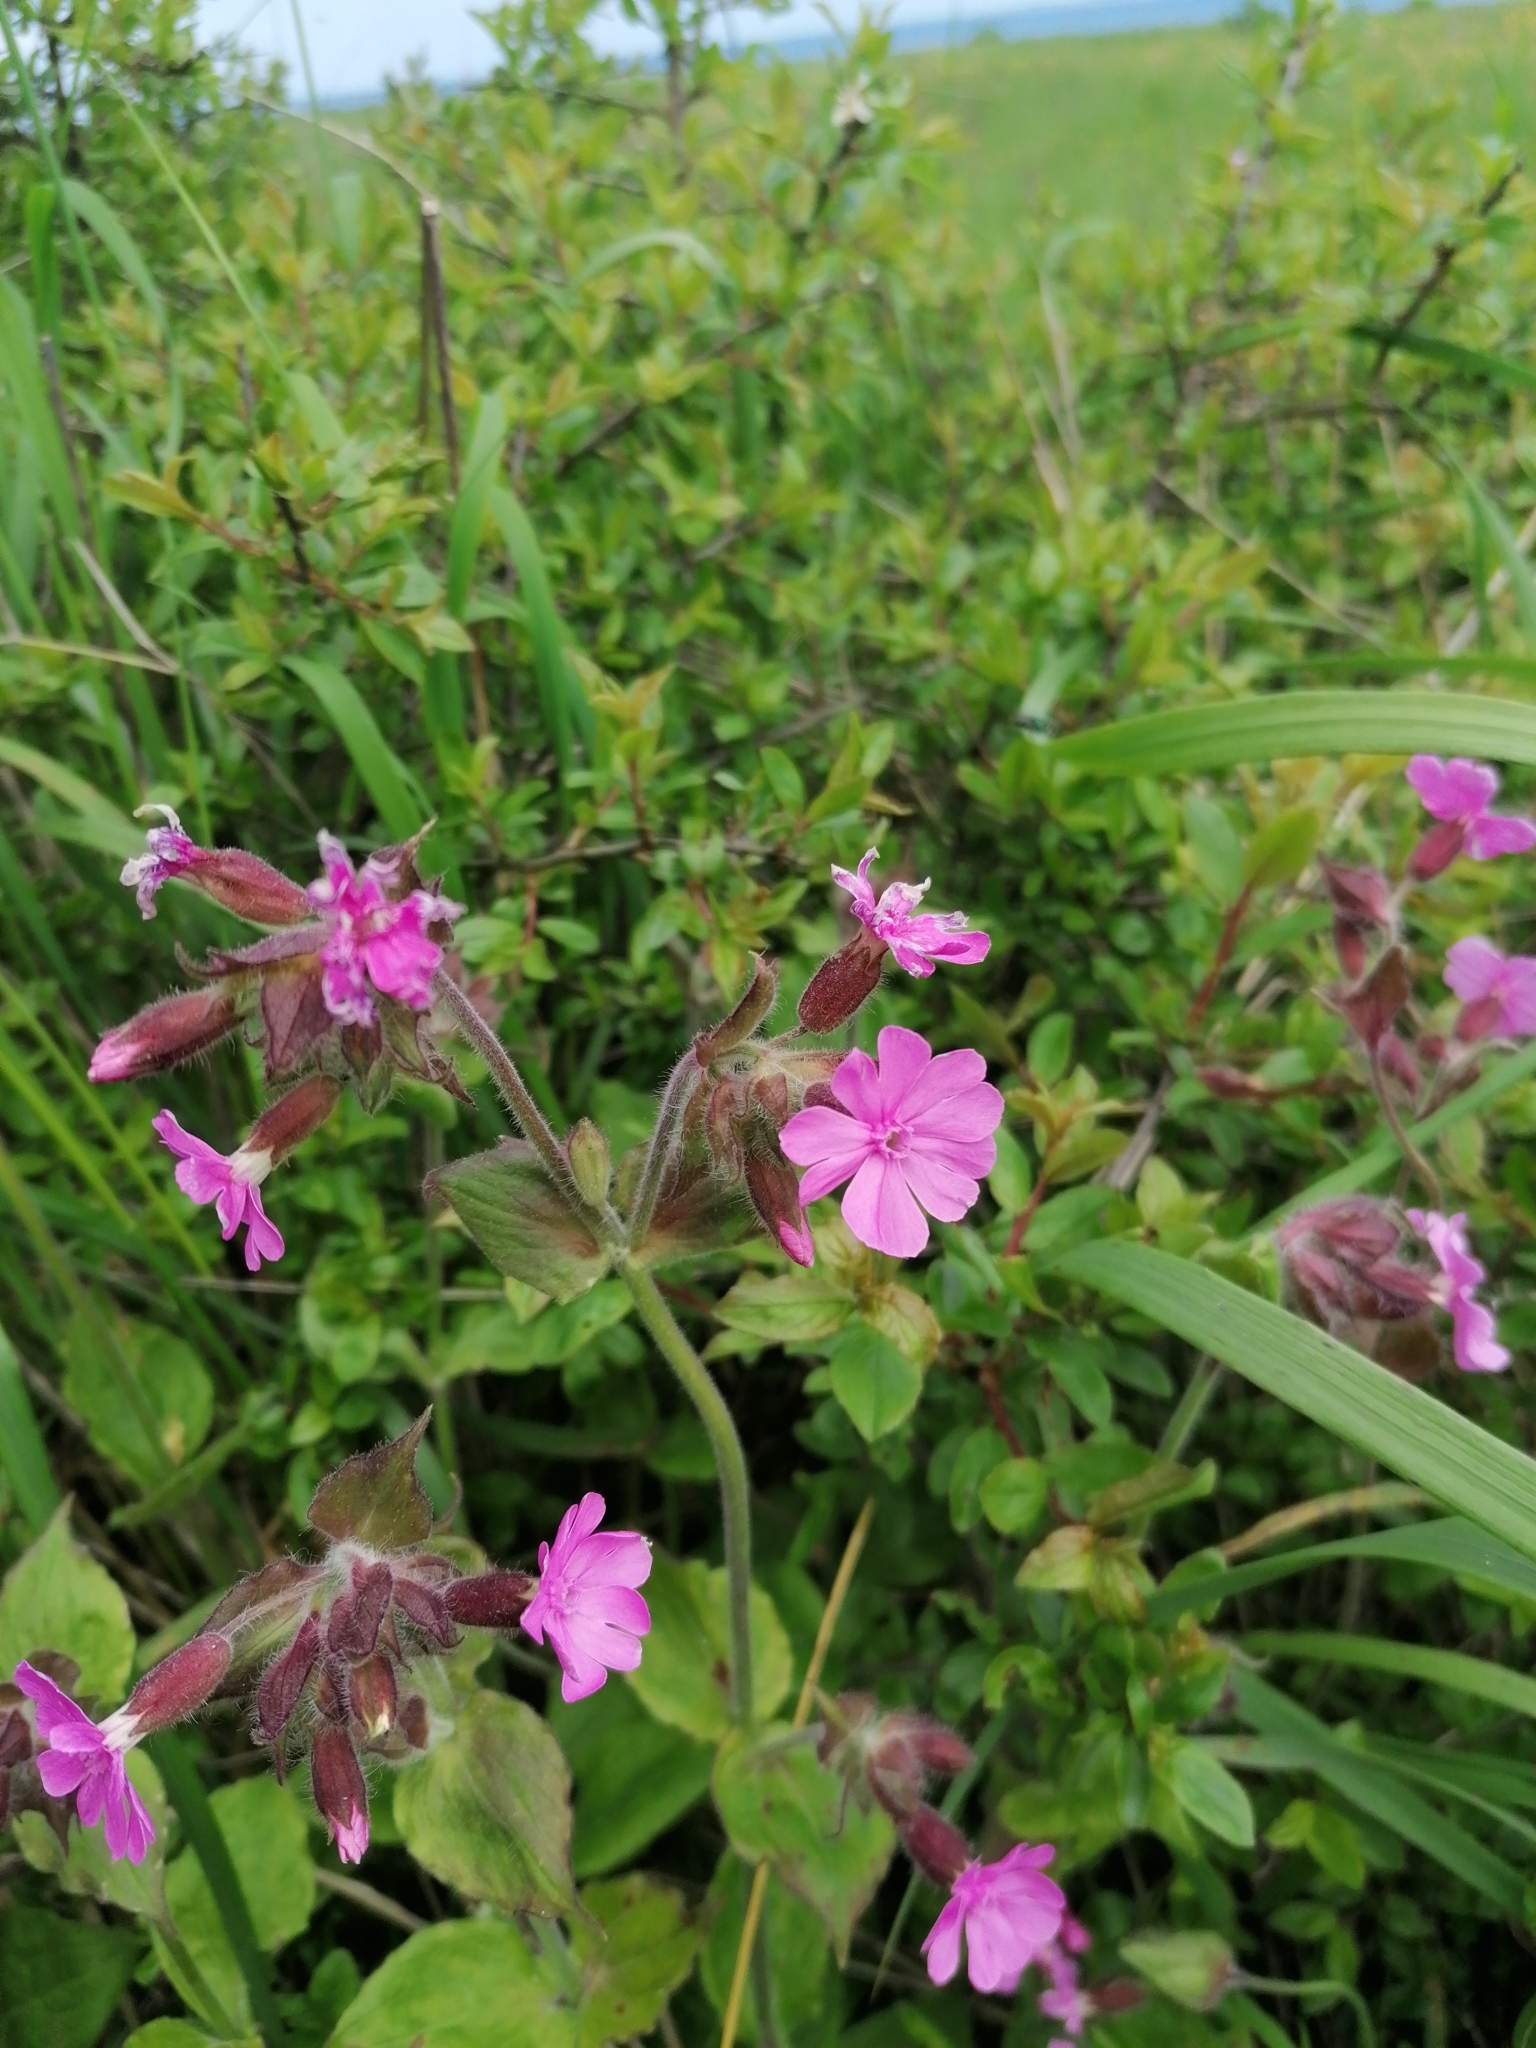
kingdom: Plantae
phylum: Tracheophyta
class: Magnoliopsida
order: Caryophyllales
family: Caryophyllaceae
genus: Silene
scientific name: Silene dioica
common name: Red campion
